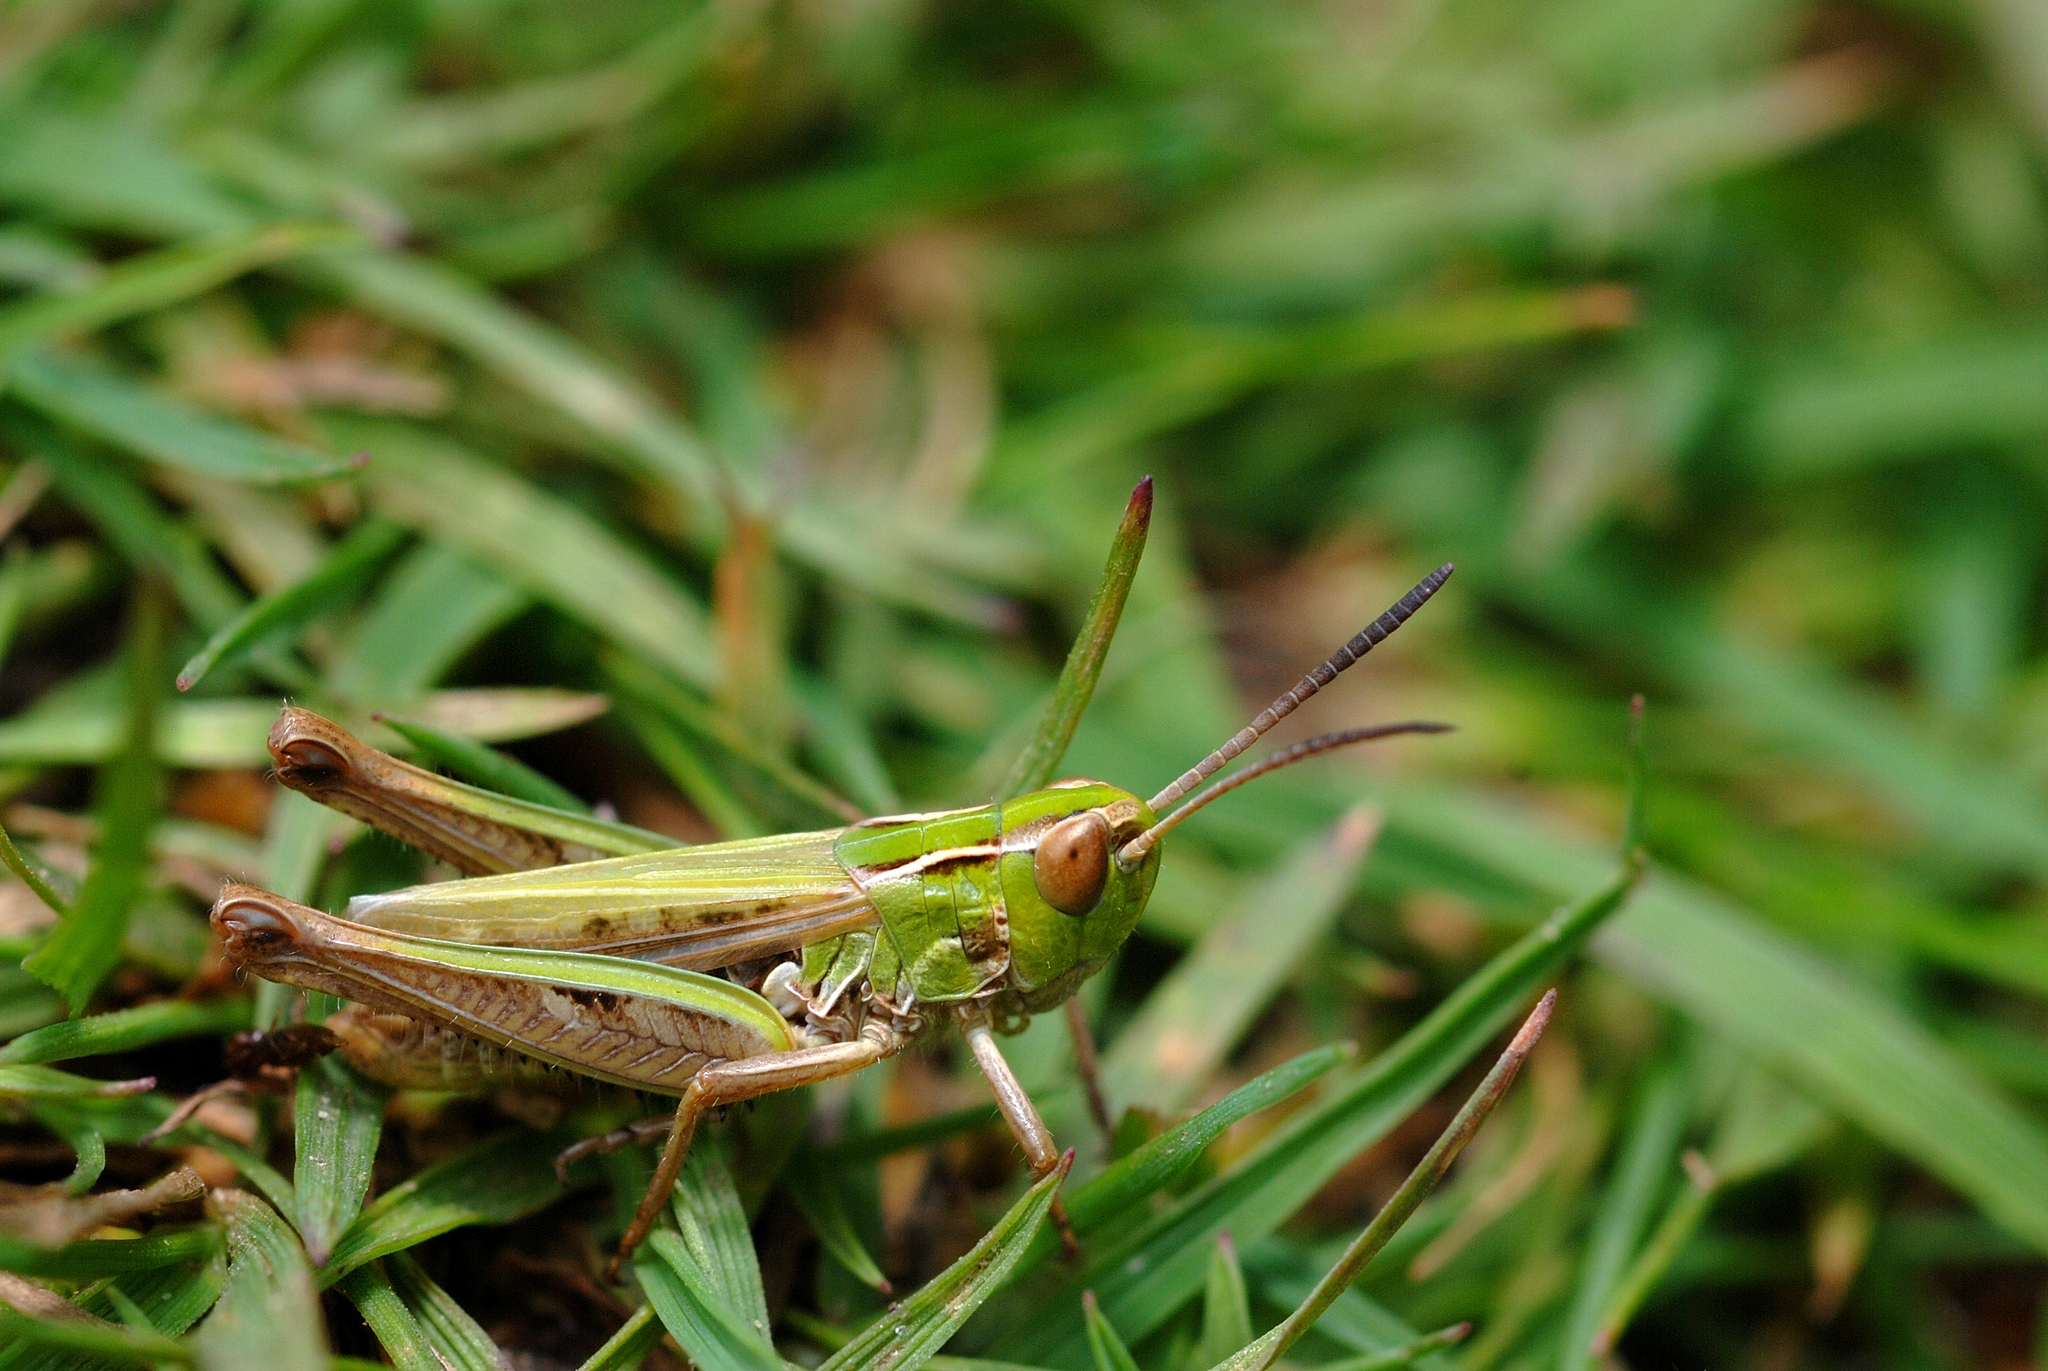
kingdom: Animalia
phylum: Arthropoda
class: Insecta
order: Orthoptera
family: Acrididae
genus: Stenobothrus
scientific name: Stenobothrus stigmaticus
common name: Lesser mottled grasshopper
